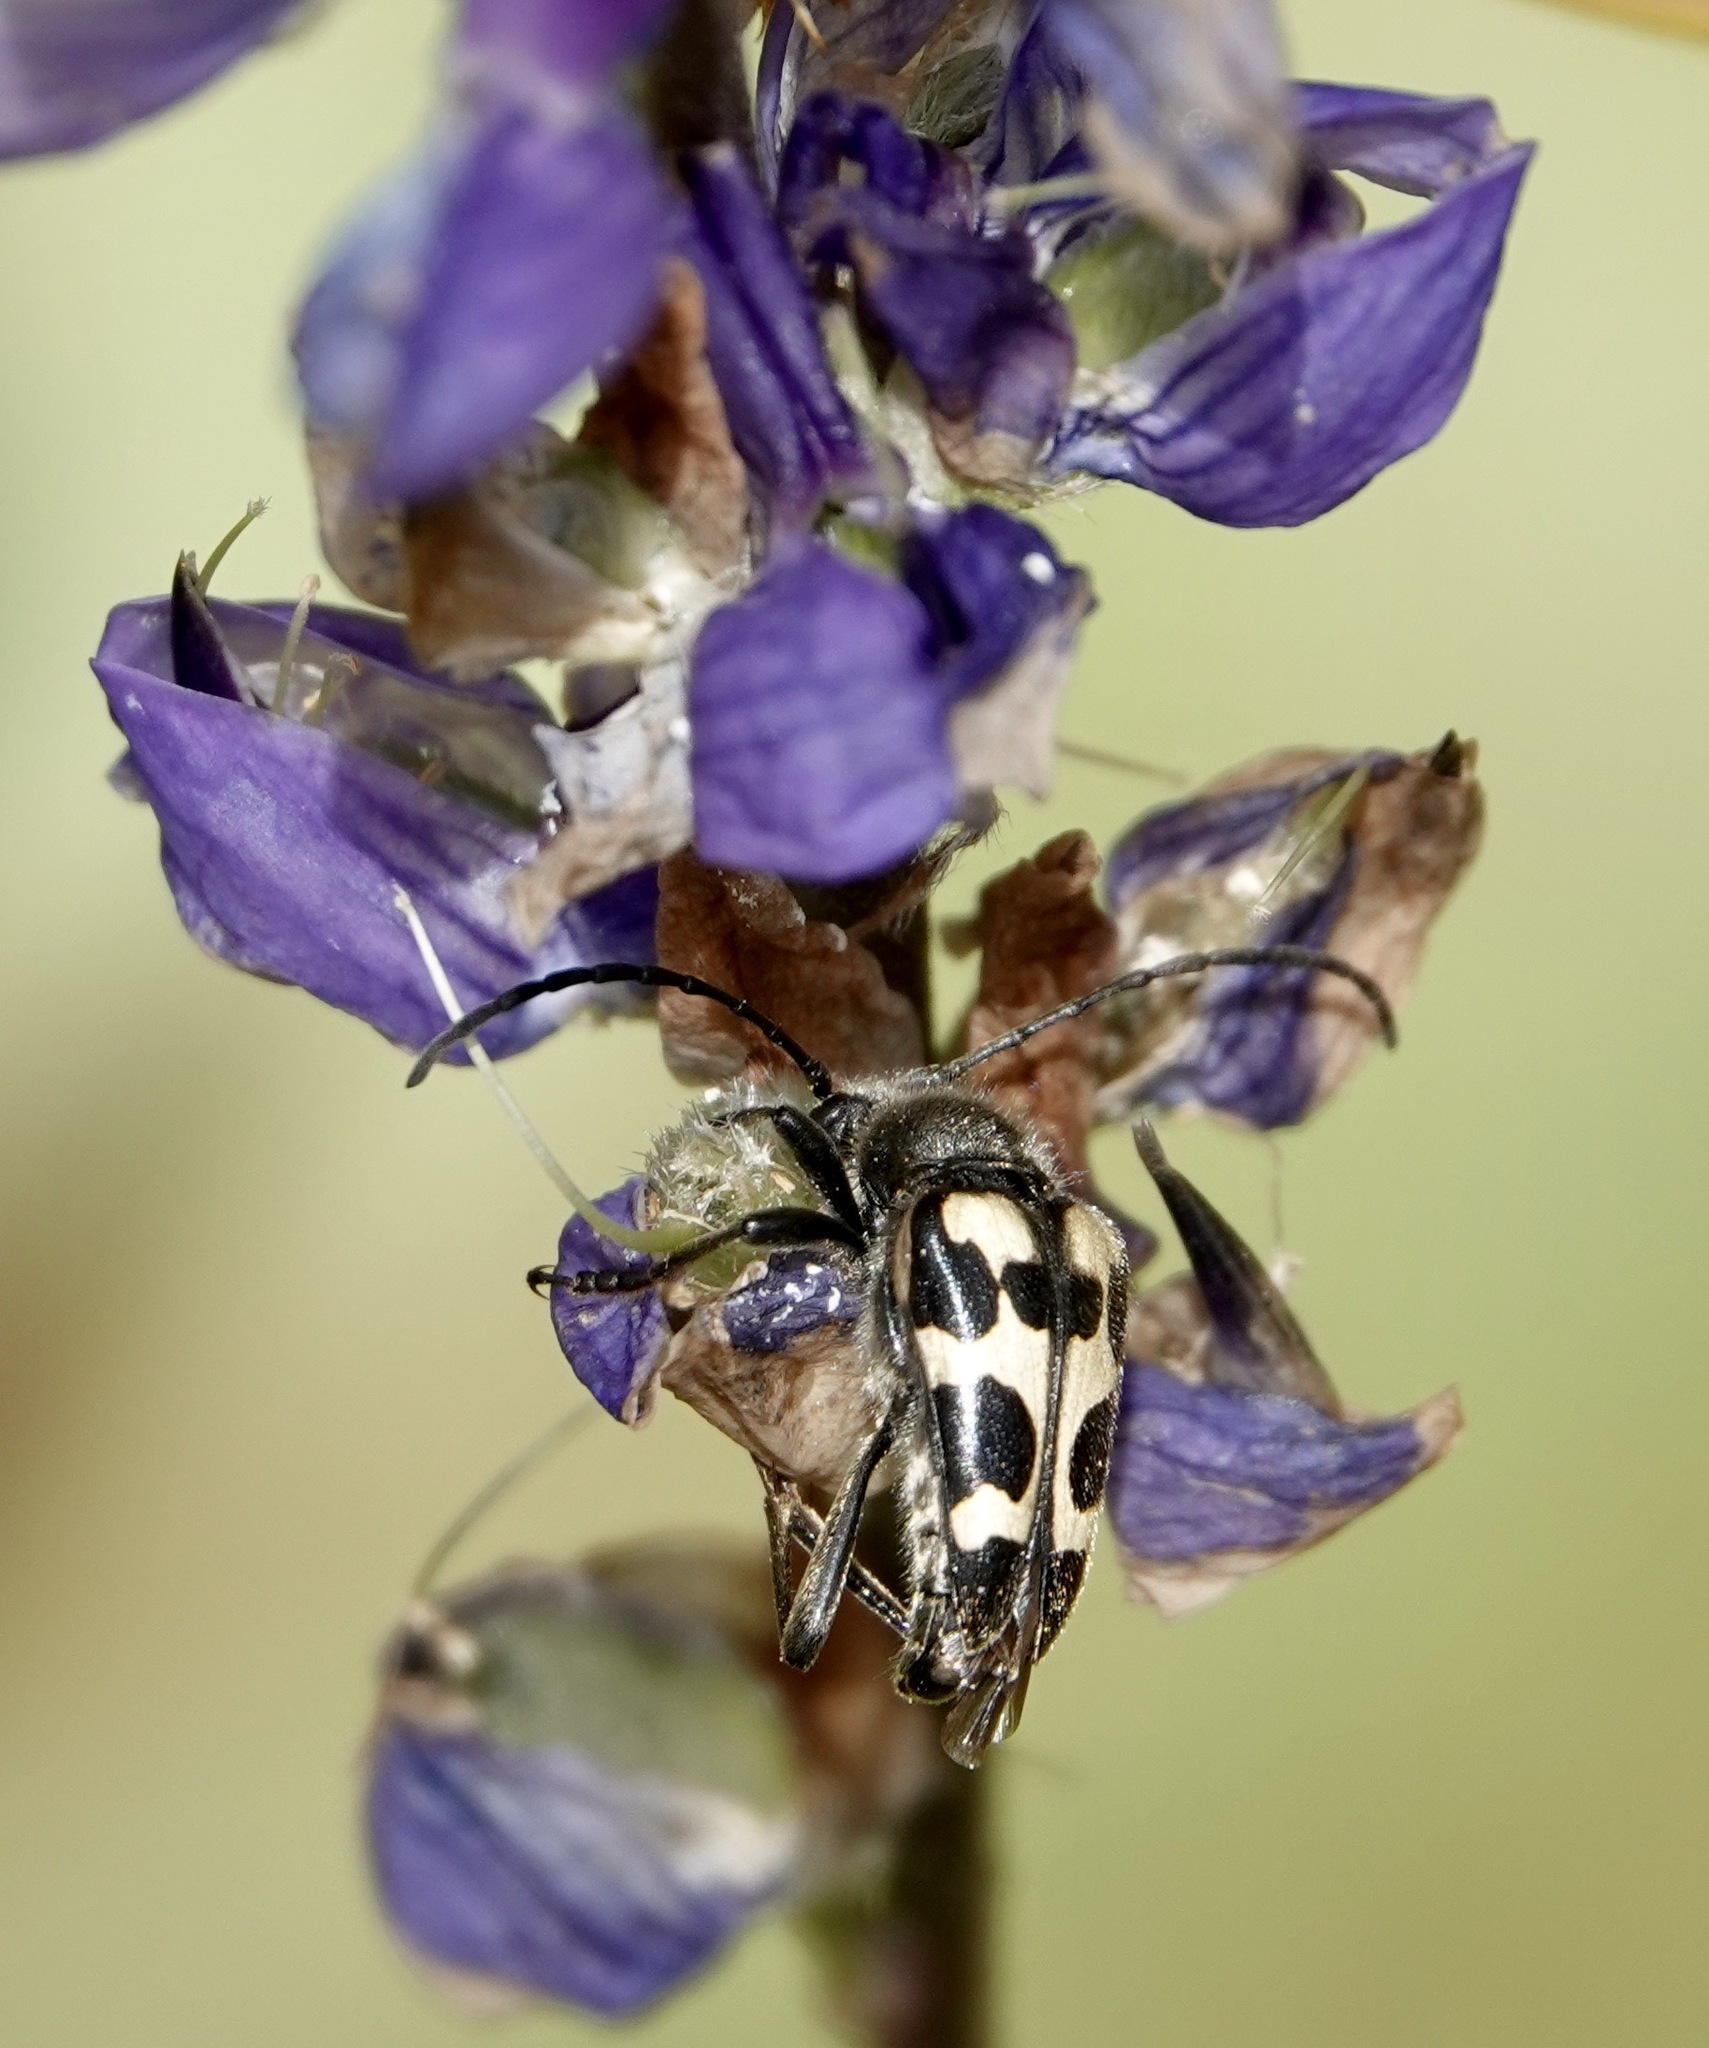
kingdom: Animalia
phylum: Arthropoda
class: Insecta
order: Coleoptera
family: Cerambycidae
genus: Judolia
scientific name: Judolia instabilis
